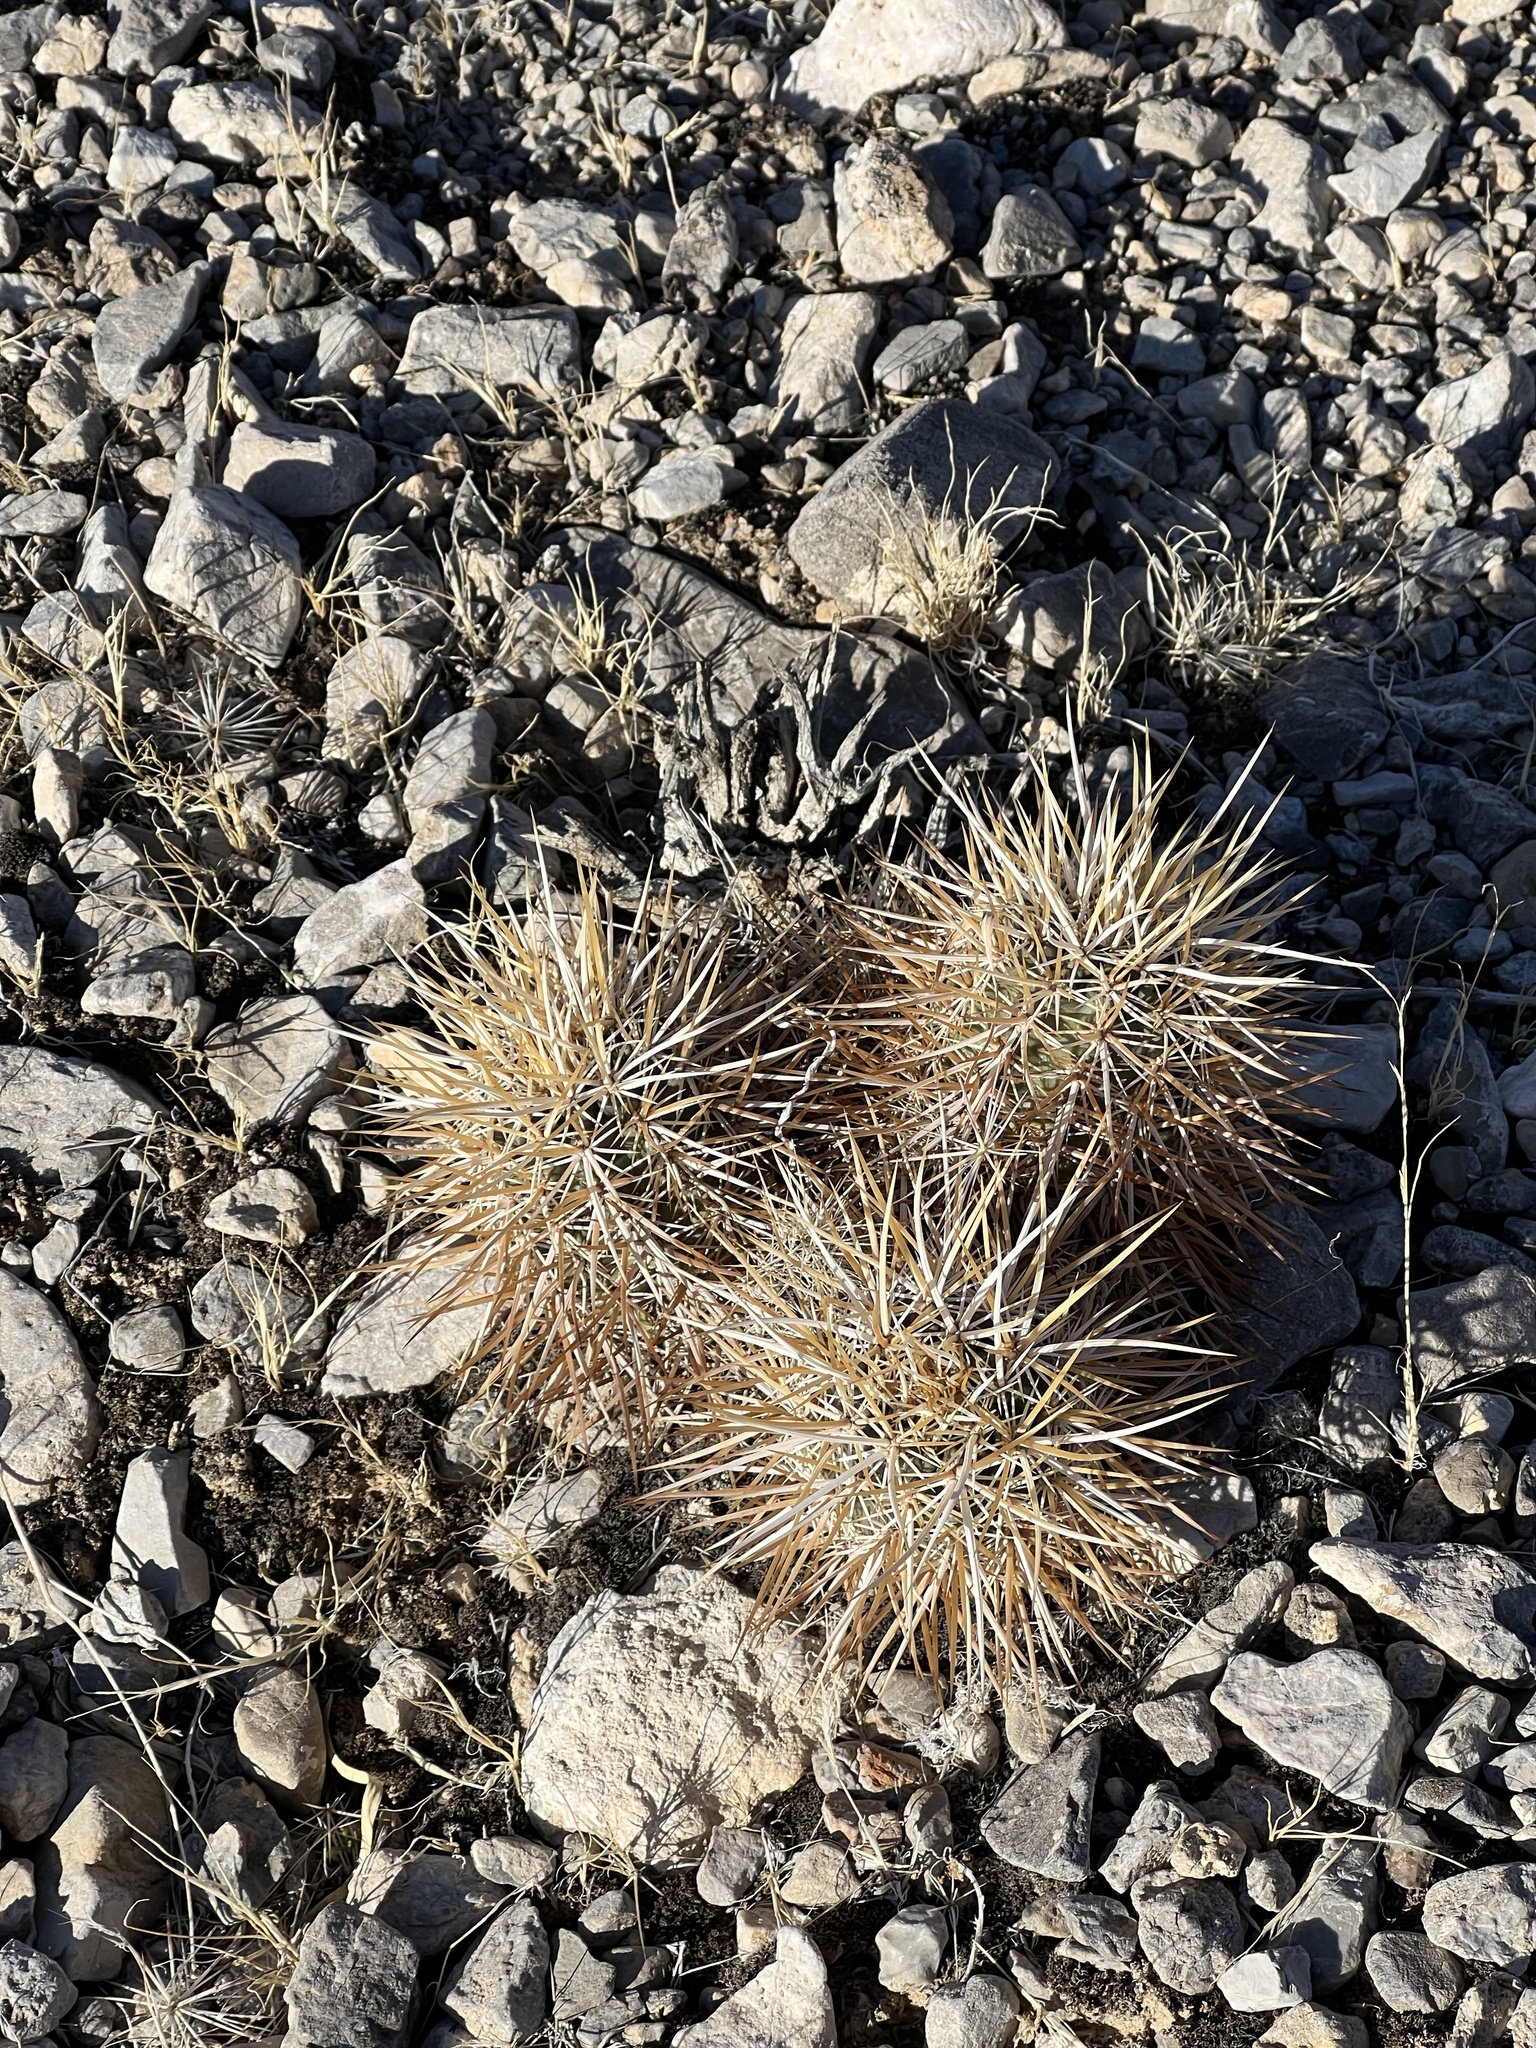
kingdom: Plantae
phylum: Tracheophyta
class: Magnoliopsida
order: Caryophyllales
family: Cactaceae
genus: Echinocereus
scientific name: Echinocereus engelmannii
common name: Engelmann's hedgehog cactus
